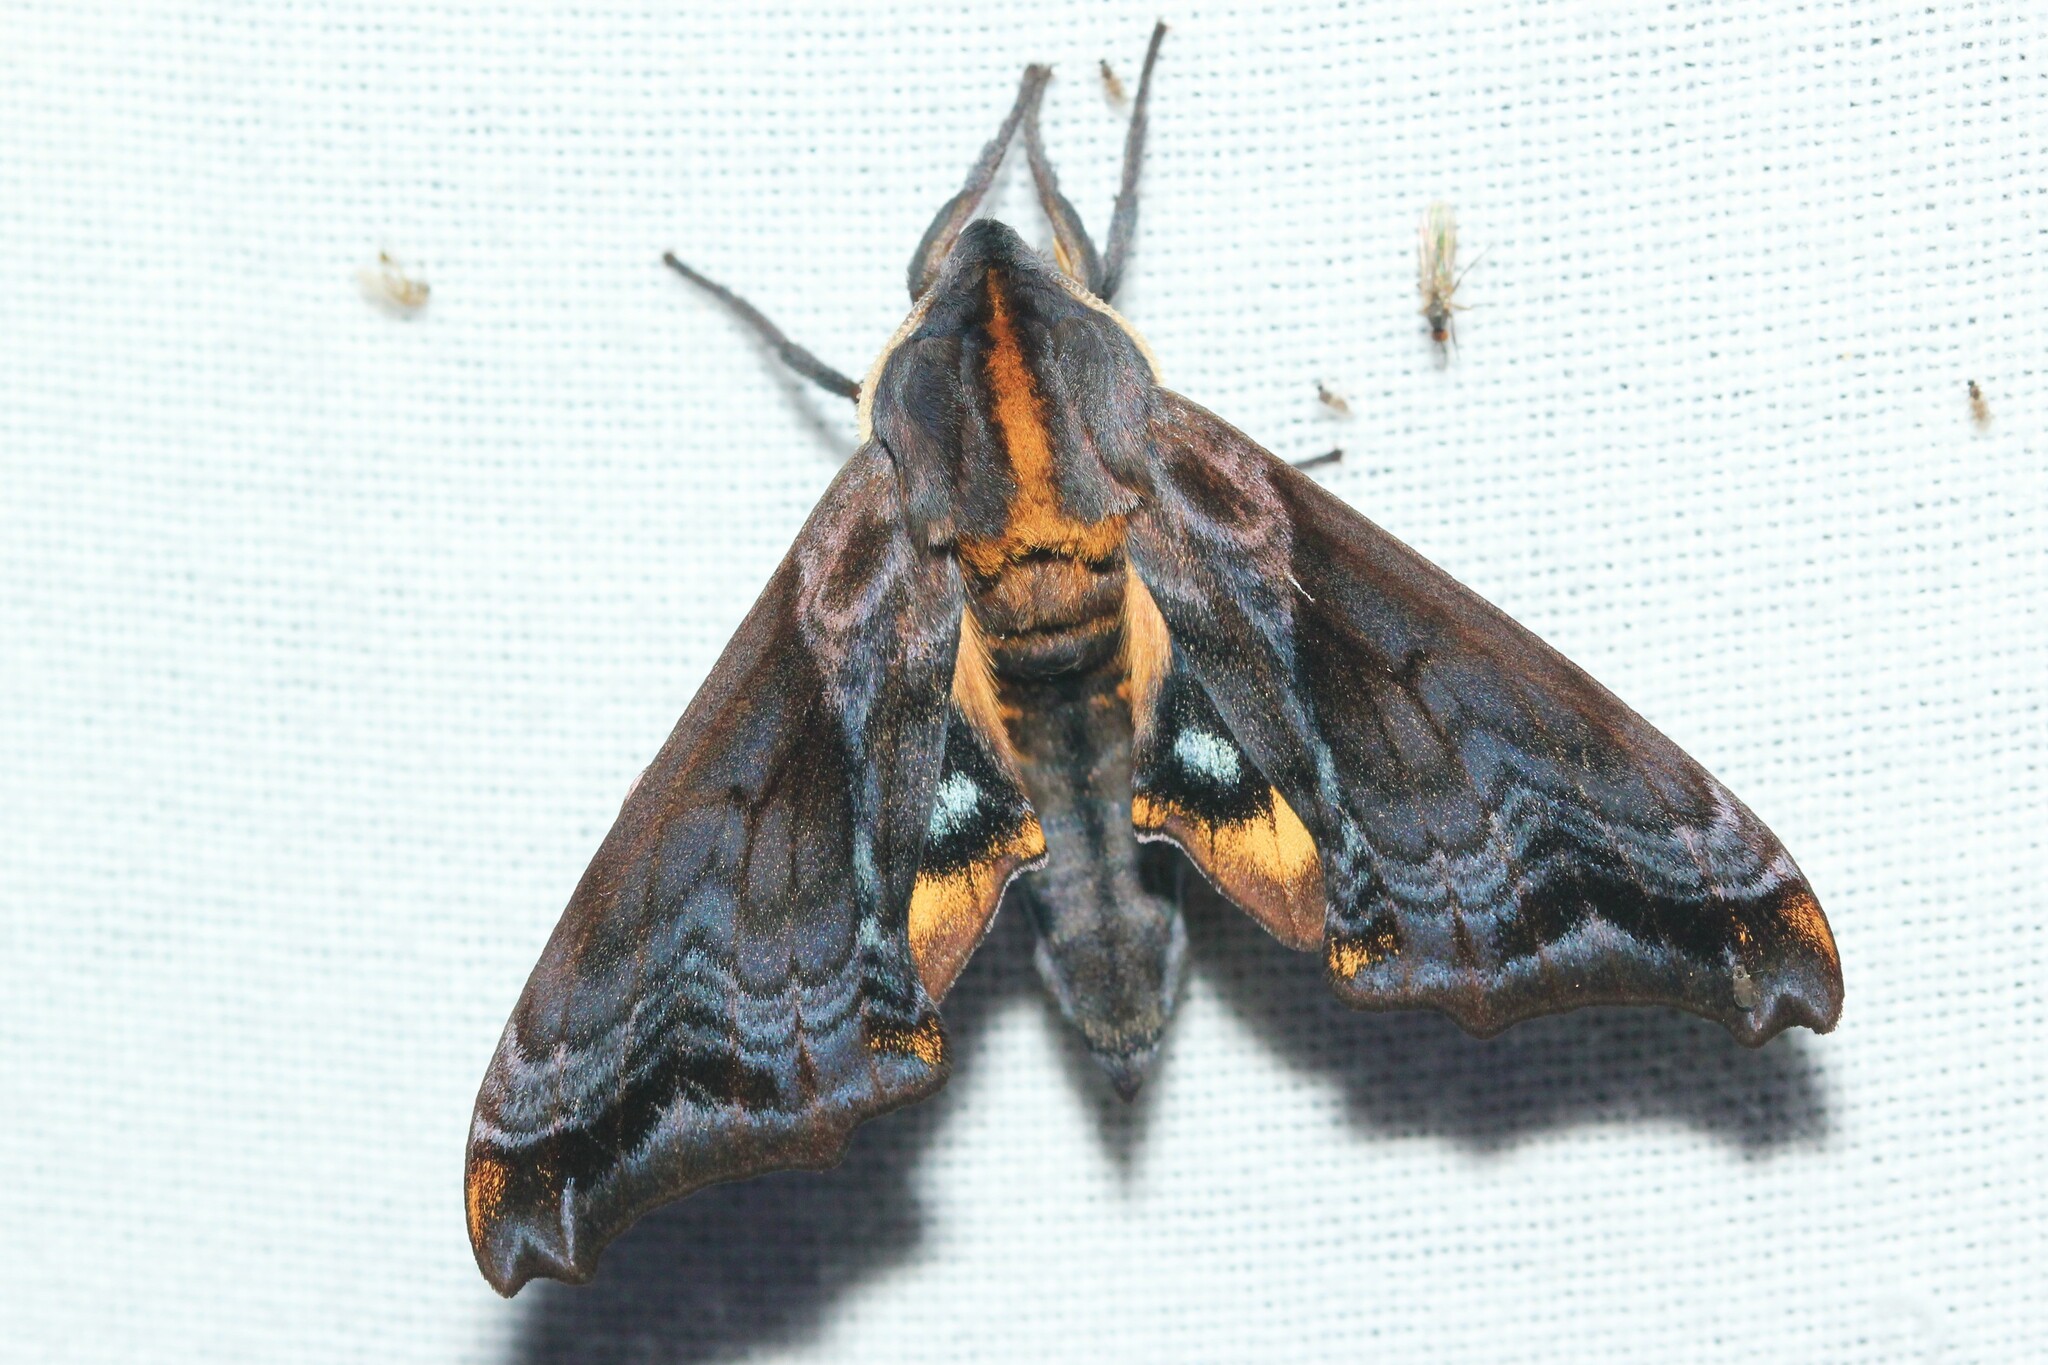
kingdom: Animalia
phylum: Arthropoda
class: Insecta
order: Lepidoptera
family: Sphingidae
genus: Paonias
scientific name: Paonias myops
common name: Small-eyed sphinx
